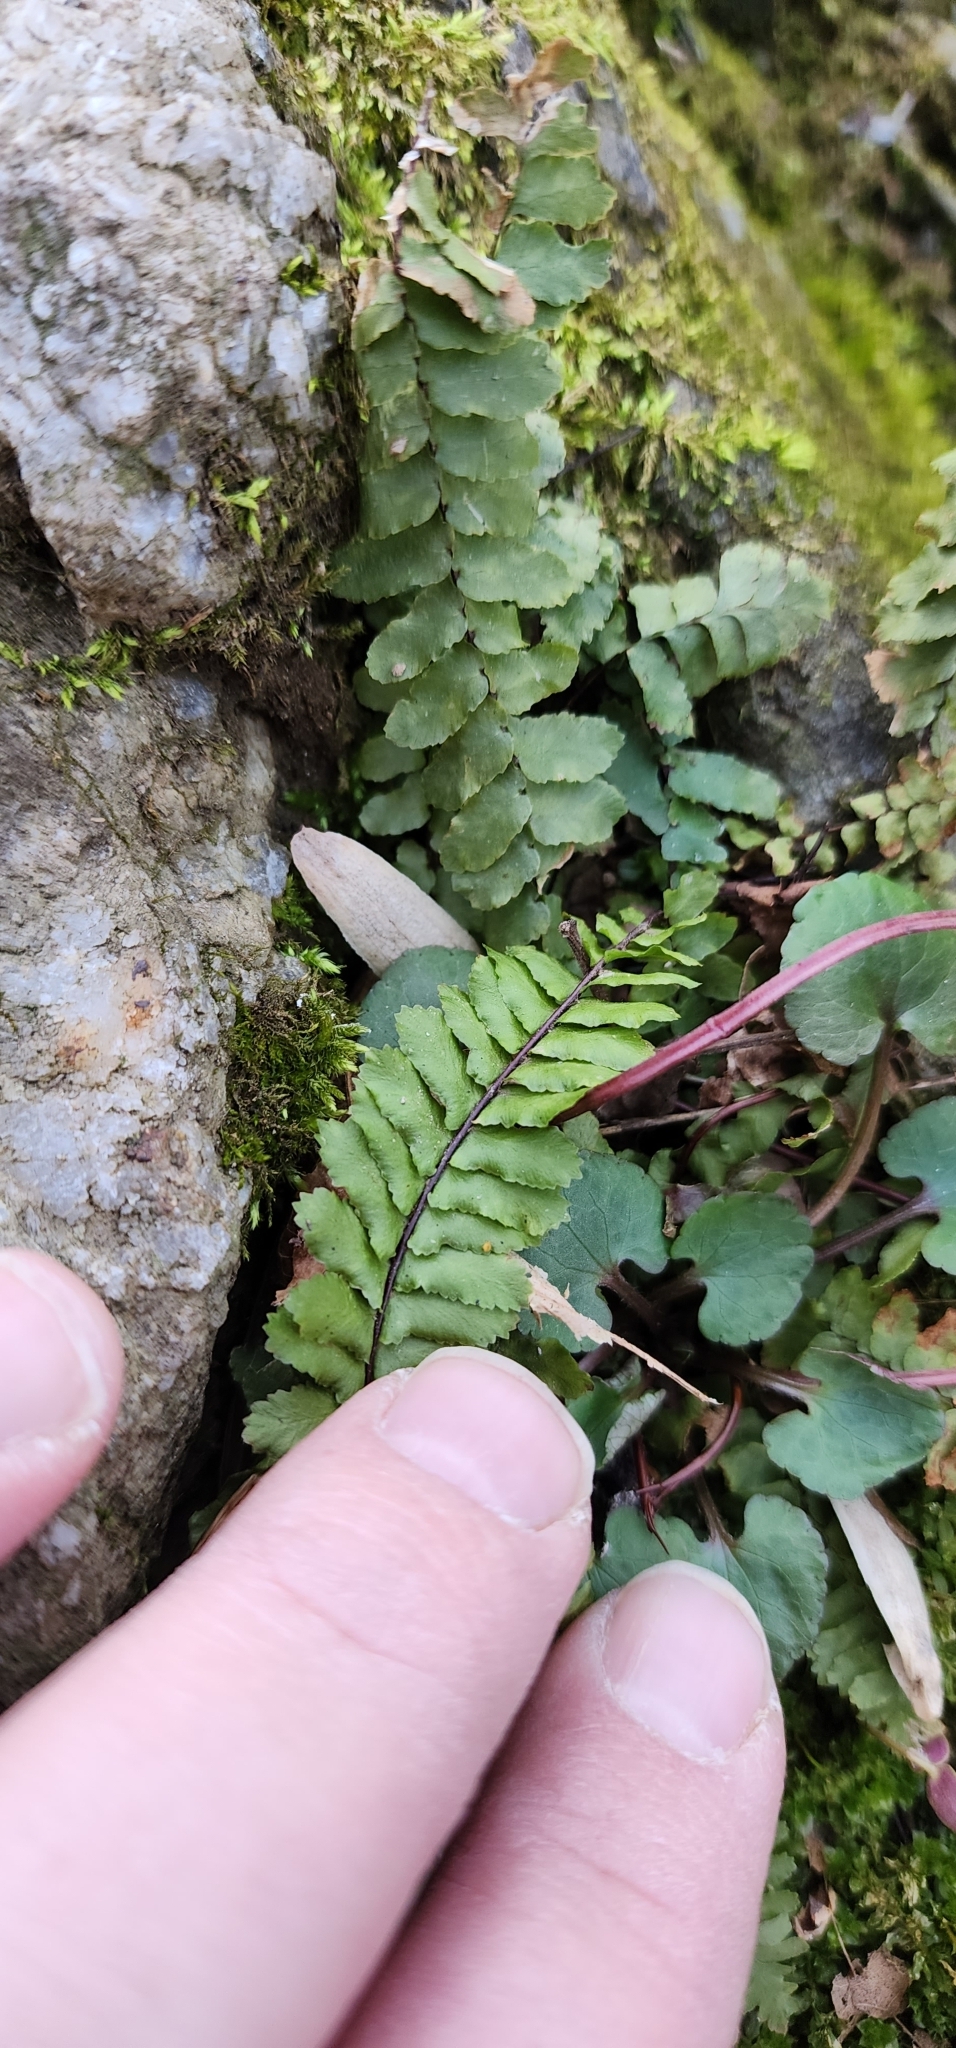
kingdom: Plantae
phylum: Tracheophyta
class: Polypodiopsida
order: Polypodiales
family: Aspleniaceae
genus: Asplenium
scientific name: Asplenium platyneuron
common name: Ebony spleenwort
